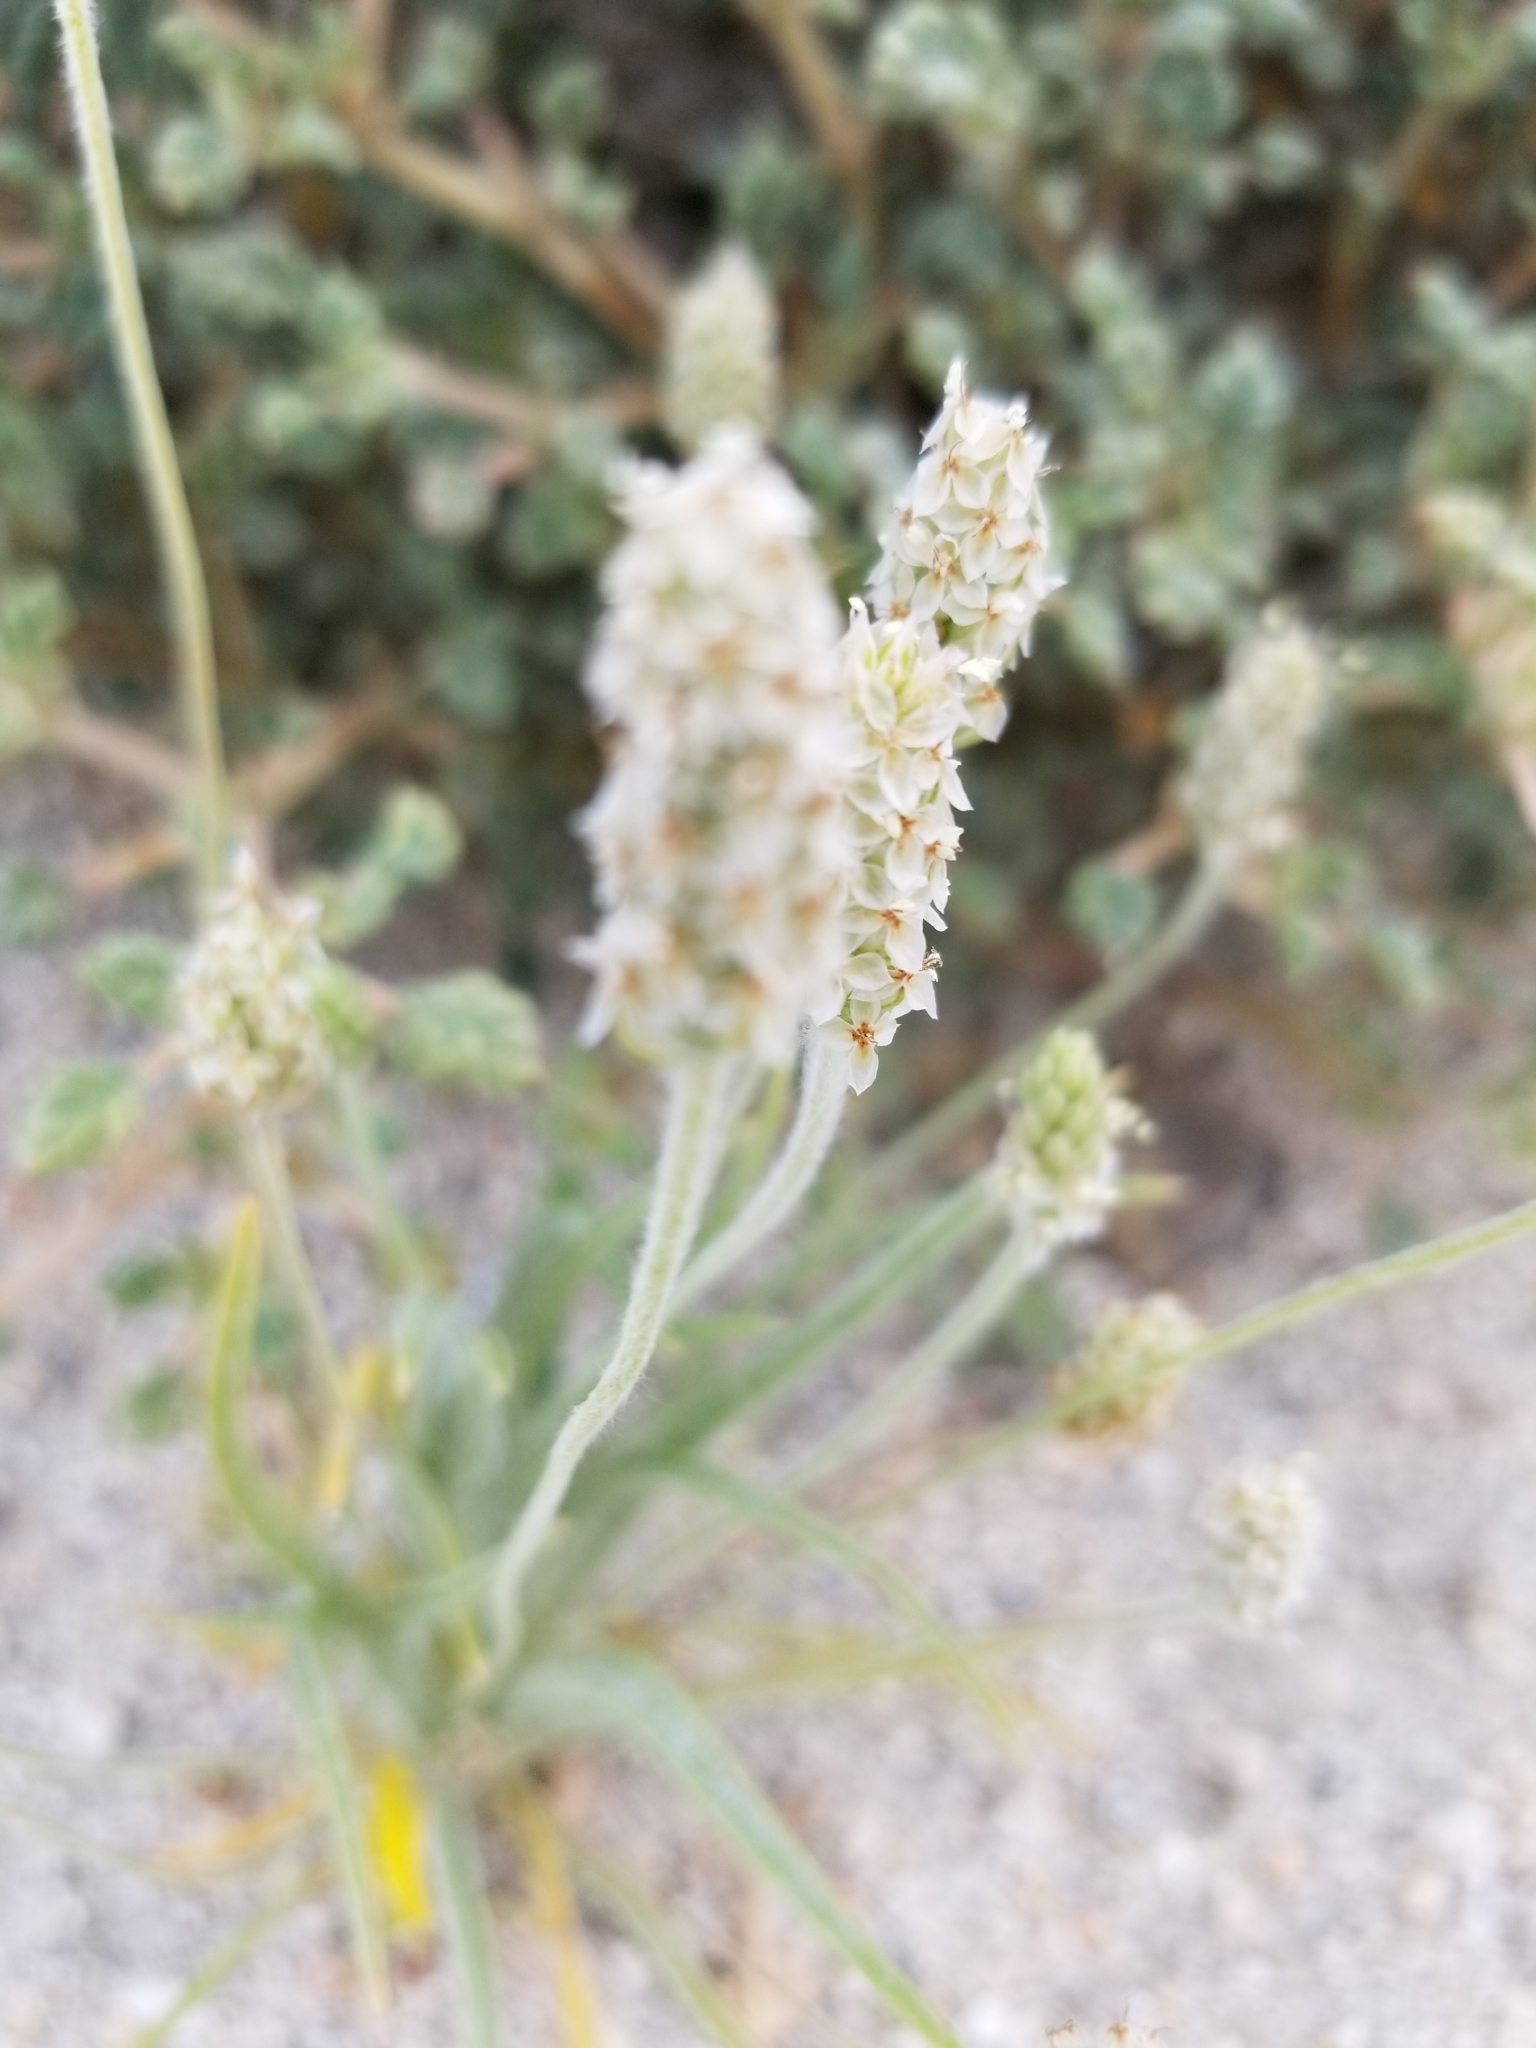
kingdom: Plantae
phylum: Tracheophyta
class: Magnoliopsida
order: Lamiales
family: Plantaginaceae
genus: Plantago
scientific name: Plantago ovata
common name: Blond plantain
